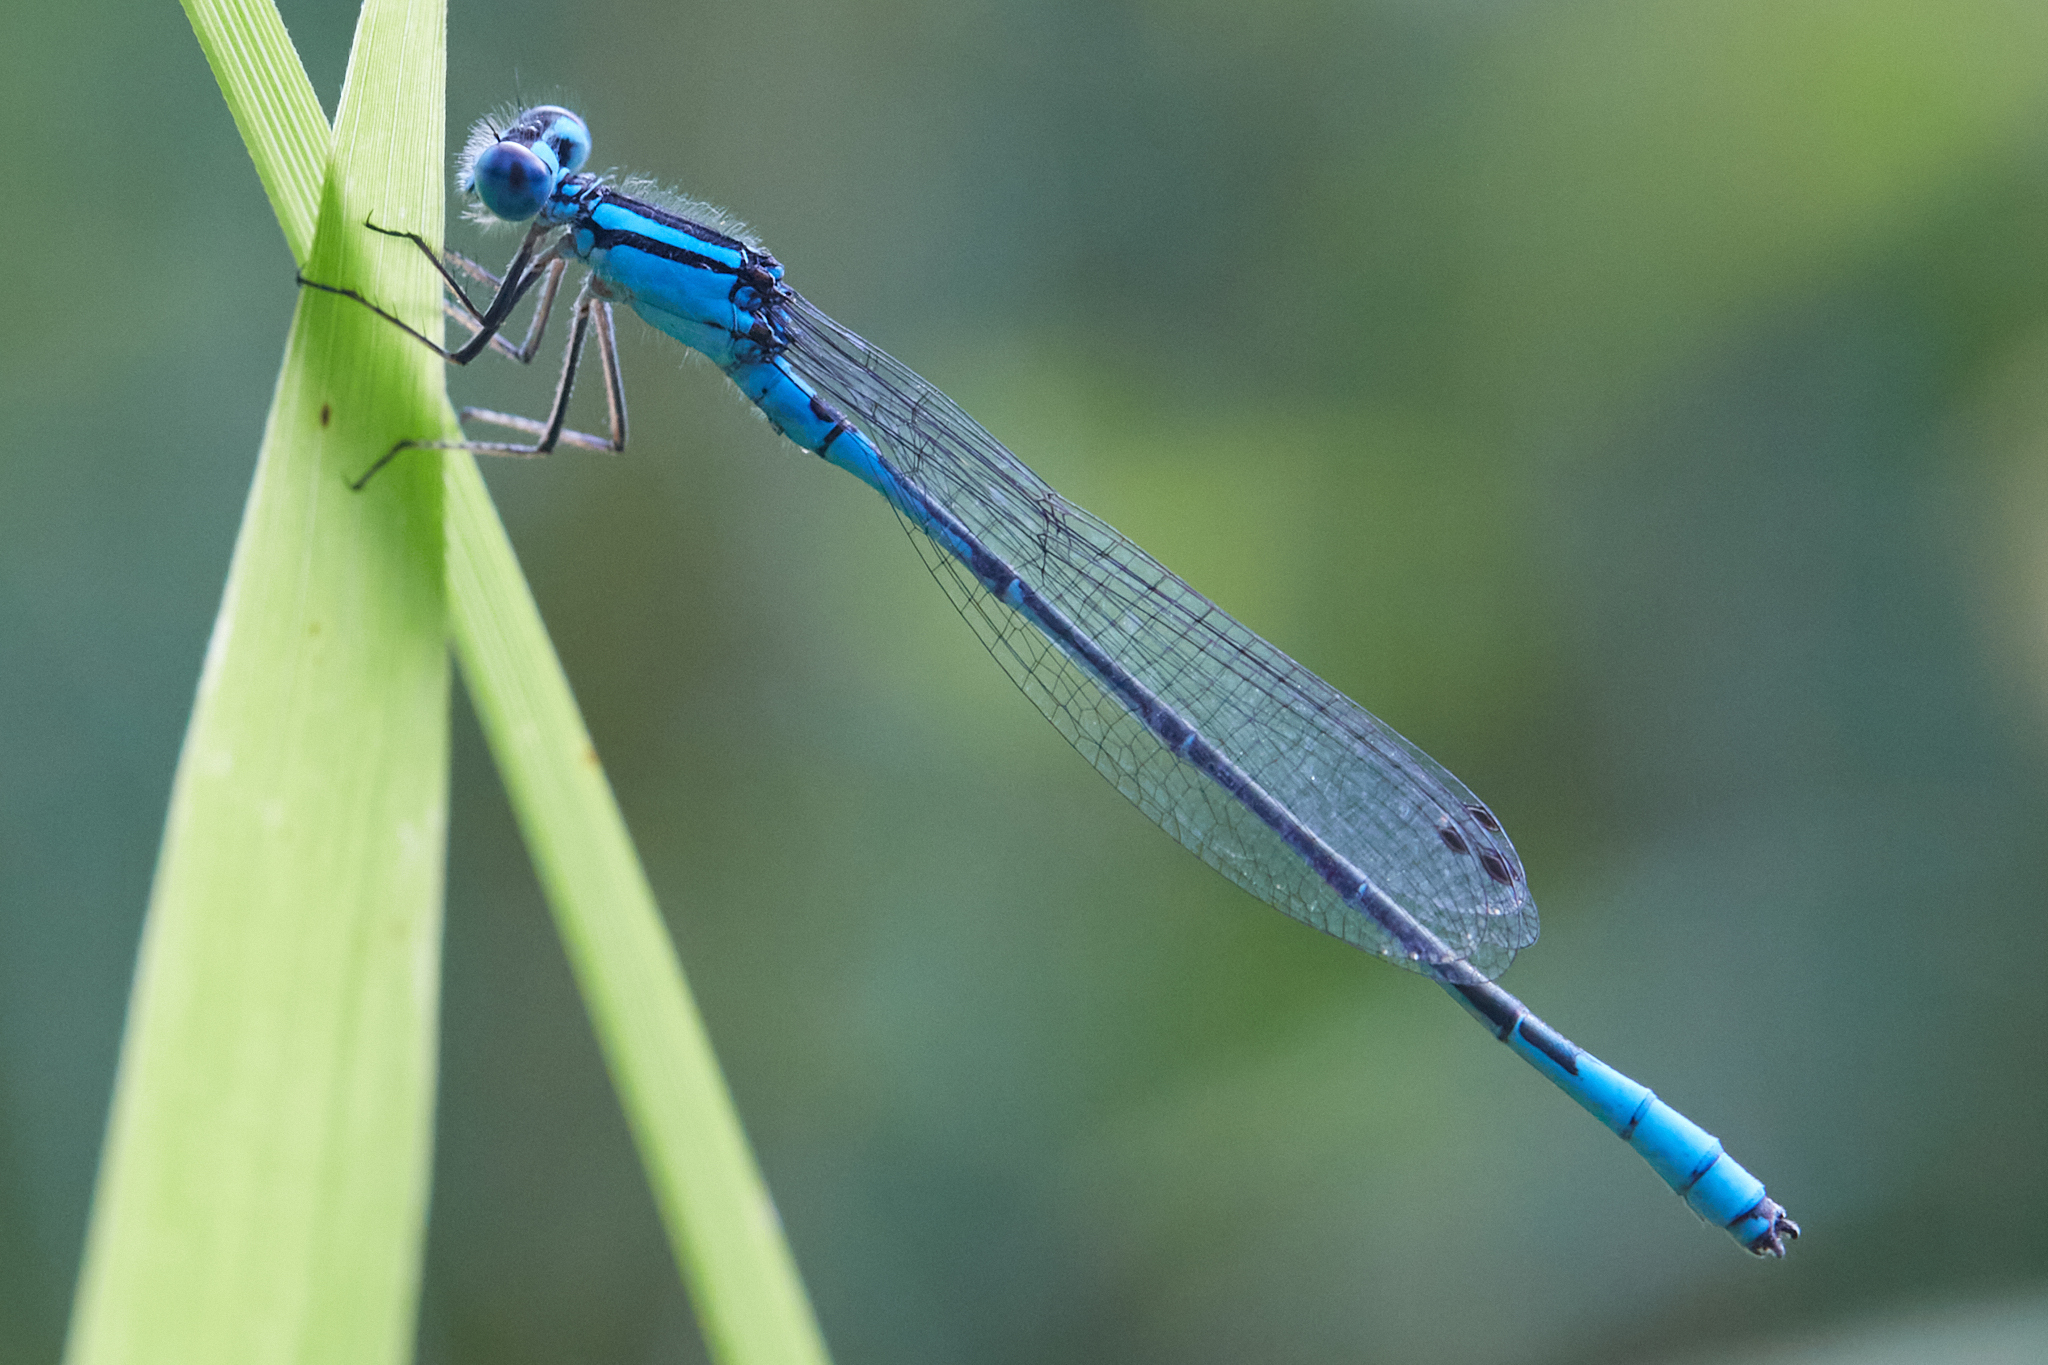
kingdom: Animalia
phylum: Arthropoda
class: Insecta
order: Odonata
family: Coenagrionidae
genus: Enallagma
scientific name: Enallagma aspersum
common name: Azure bluet
